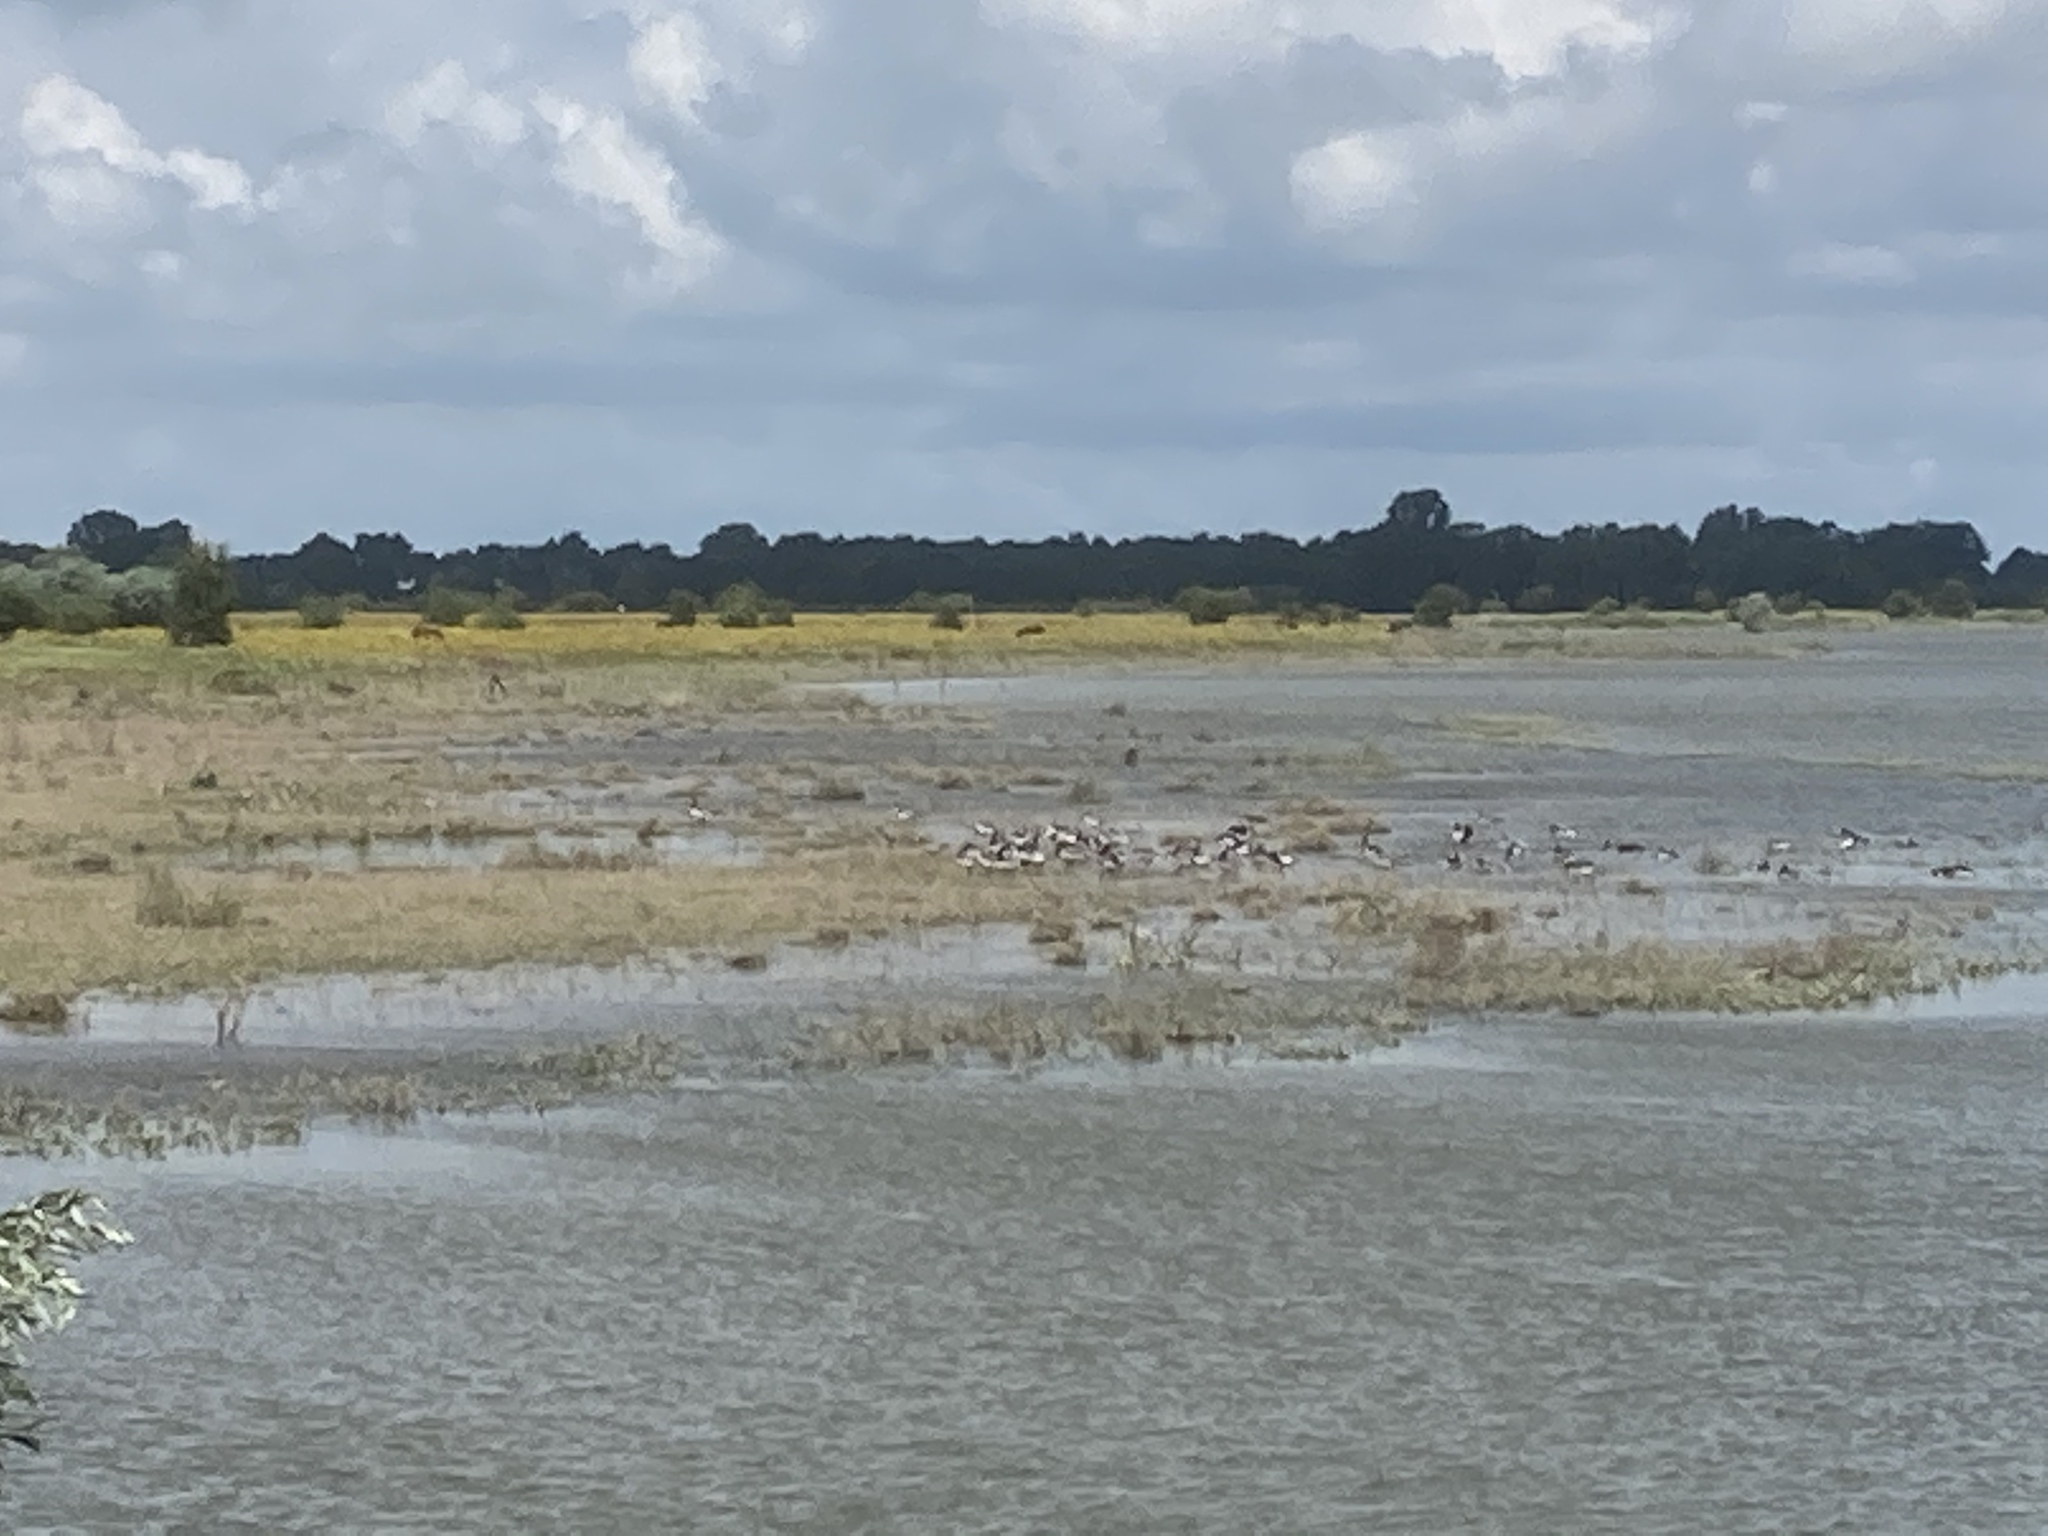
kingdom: Animalia
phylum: Chordata
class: Aves
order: Anseriformes
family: Anatidae
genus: Branta
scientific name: Branta leucopsis
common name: Barnacle goose
